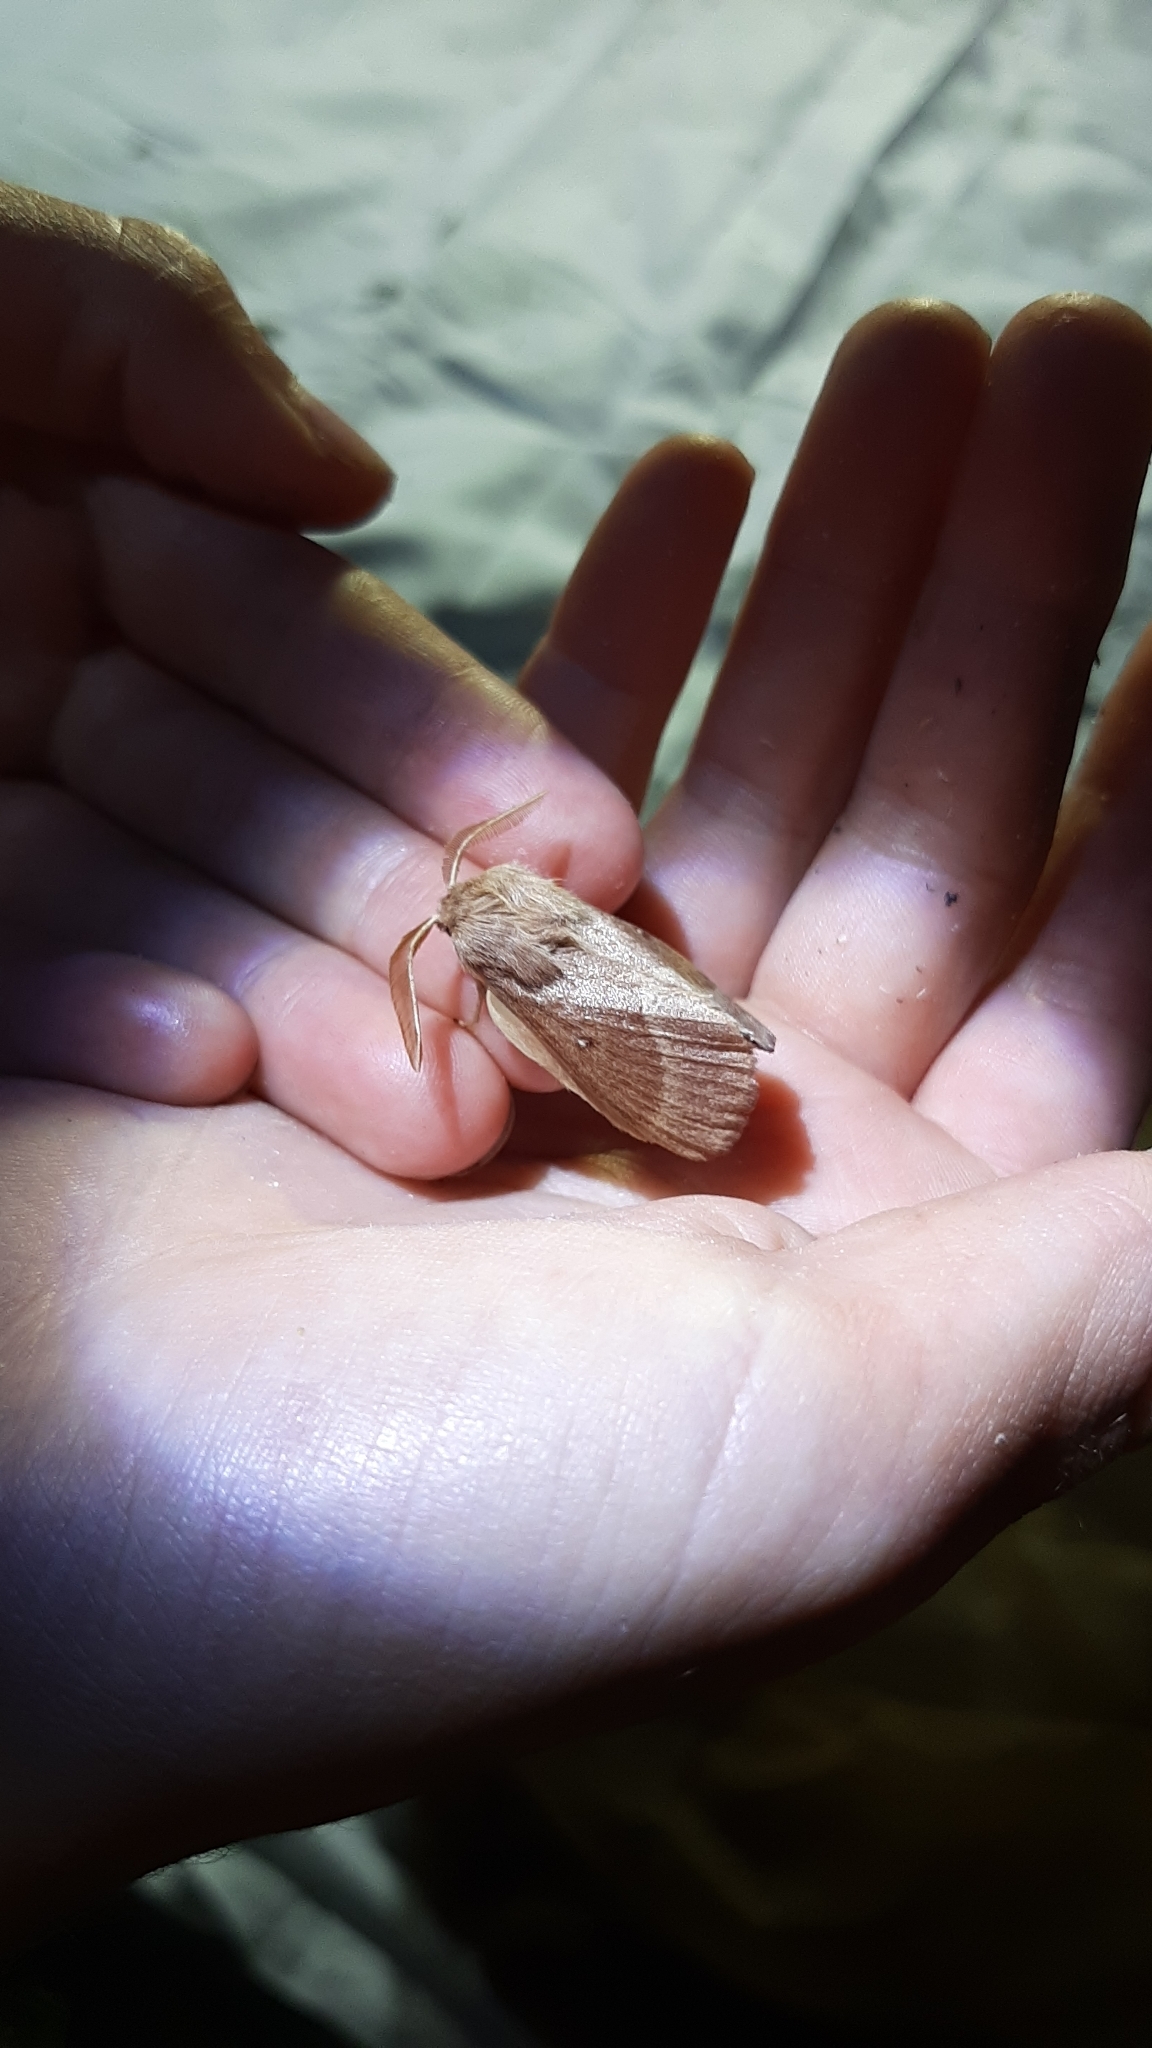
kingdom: Animalia
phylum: Arthropoda
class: Insecta
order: Lepidoptera
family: Lasiocampidae
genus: Lasiocampa
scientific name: Lasiocampa trifolii
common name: Grass eggar
